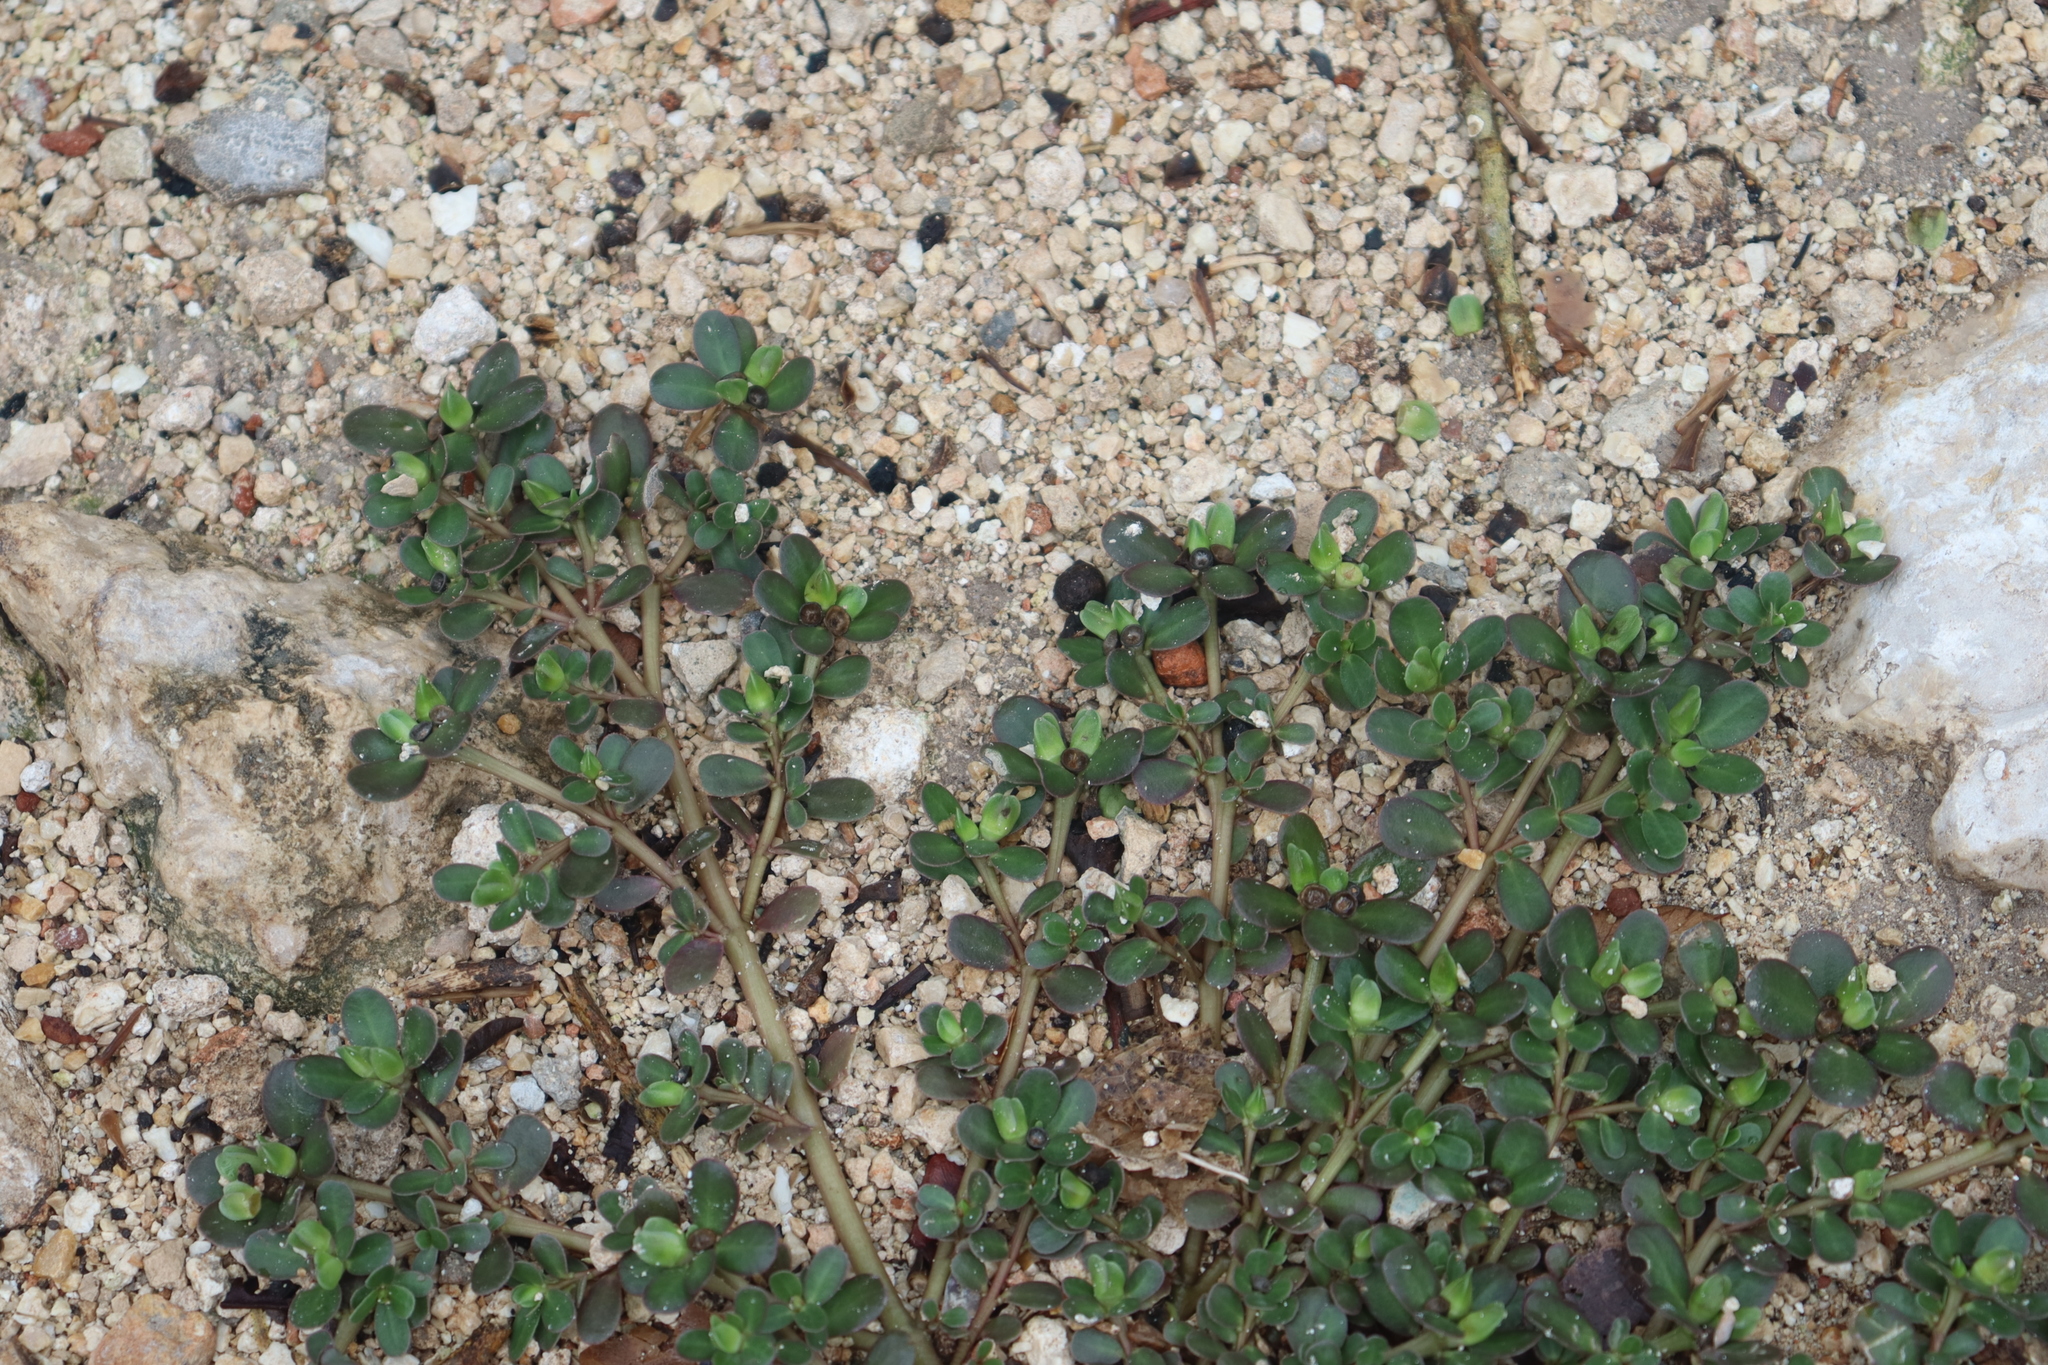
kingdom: Plantae
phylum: Tracheophyta
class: Magnoliopsida
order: Caryophyllales
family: Portulacaceae
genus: Portulaca
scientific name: Portulaca oleracea
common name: Common purslane
